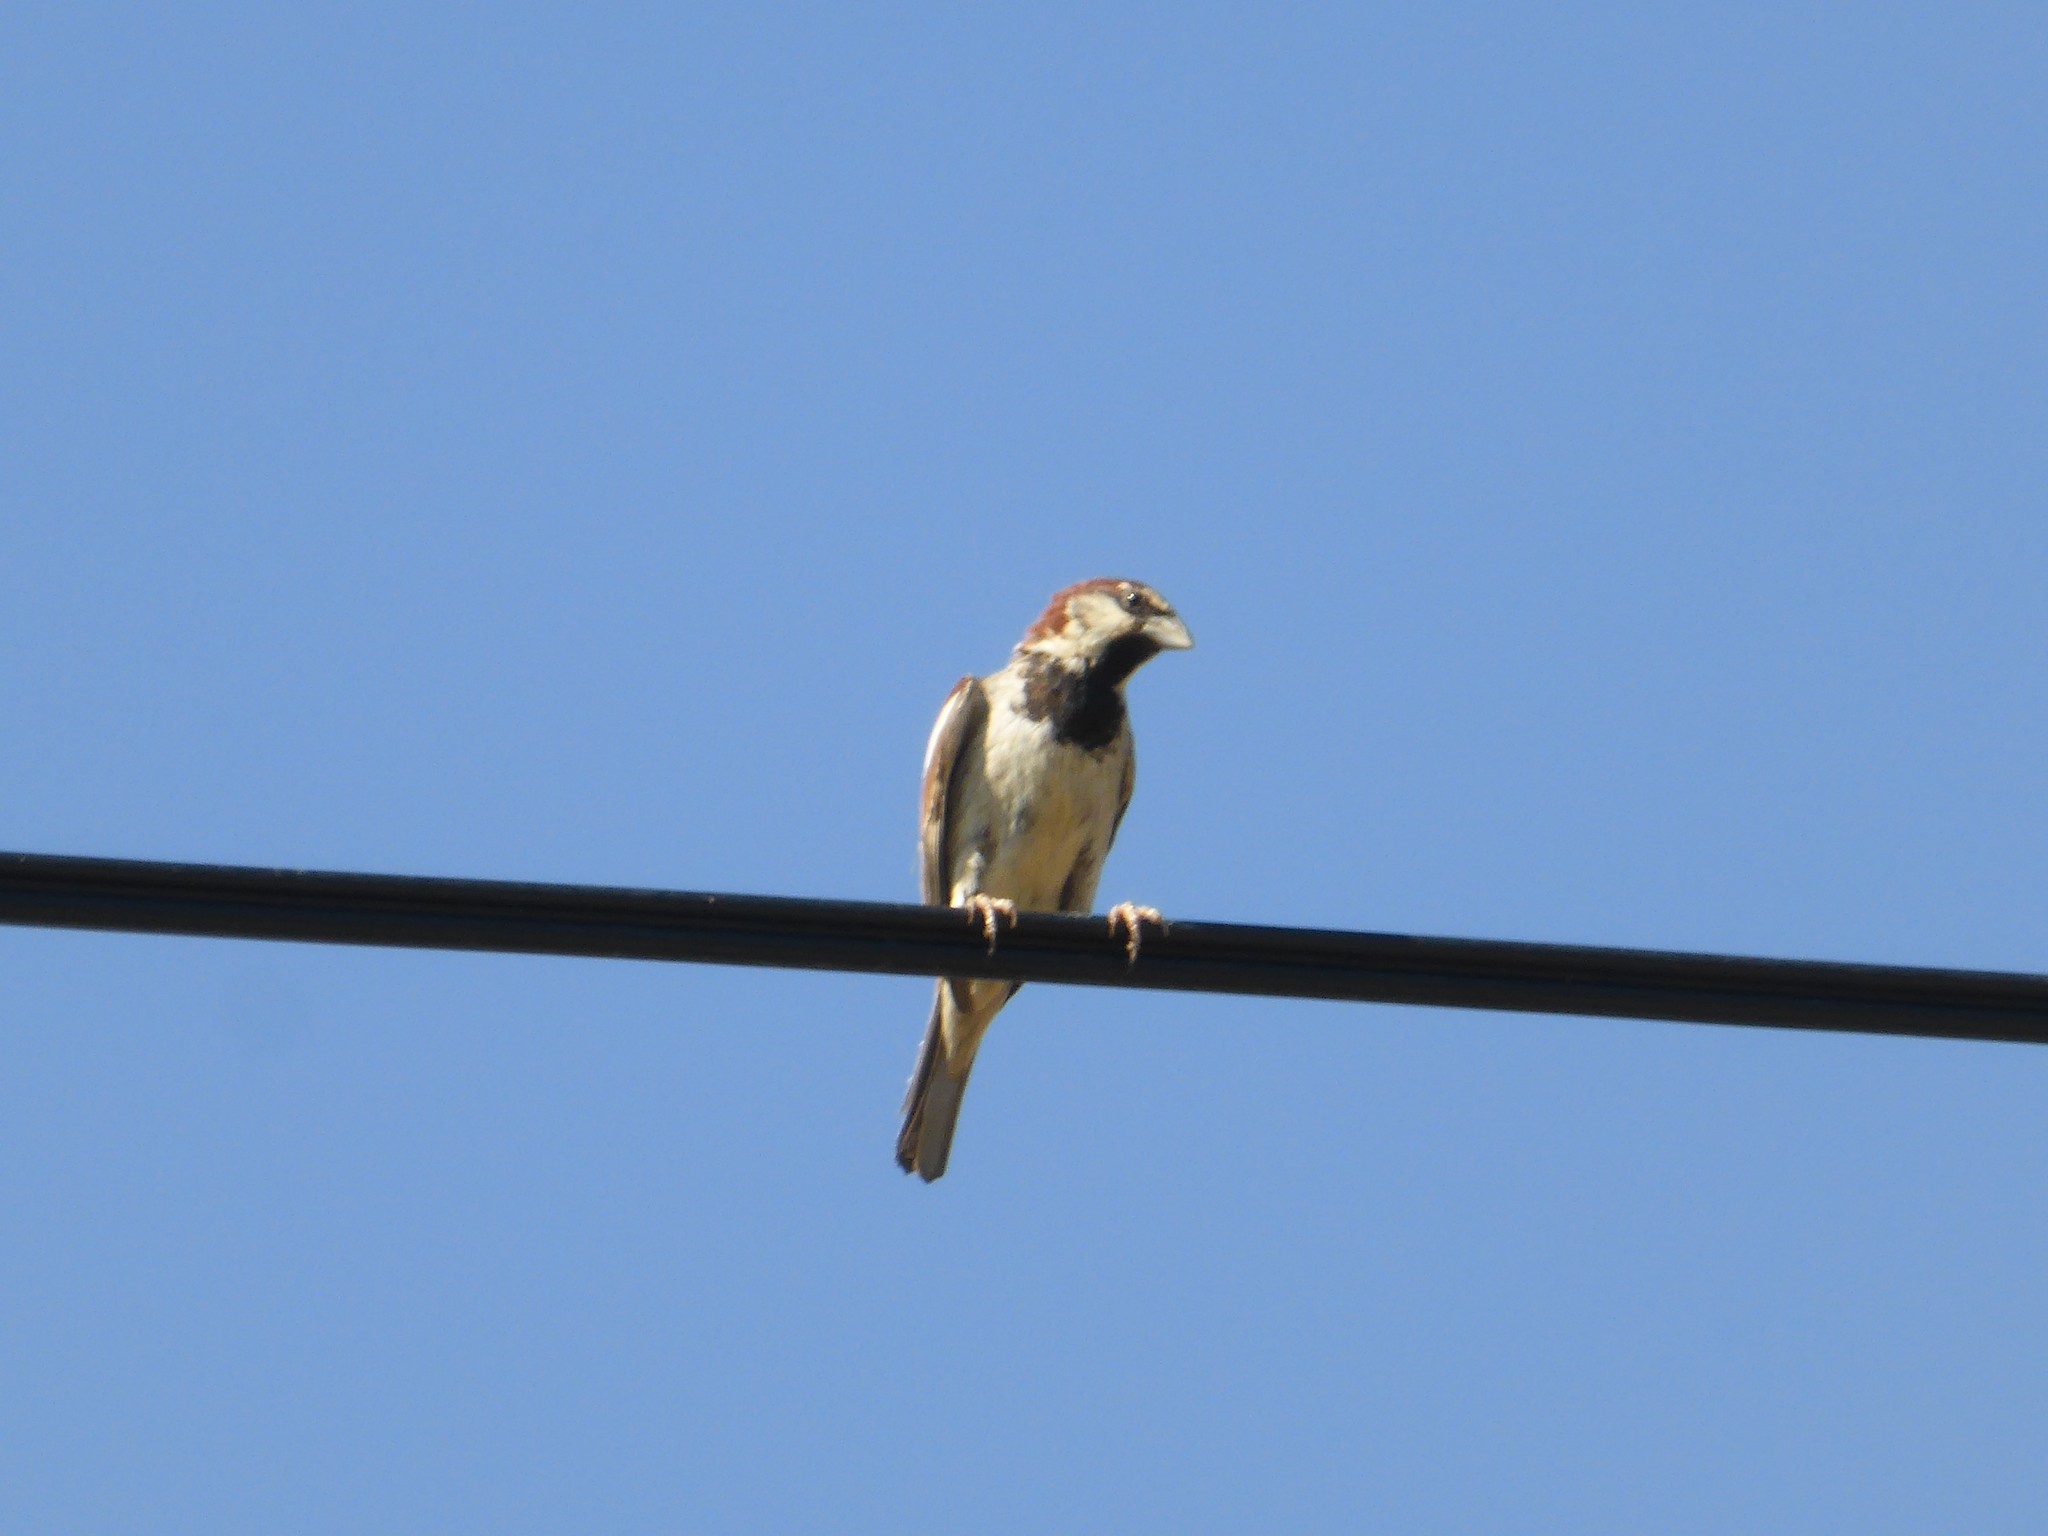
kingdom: Animalia
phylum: Chordata
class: Aves
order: Passeriformes
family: Passeridae
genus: Passer
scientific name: Passer italiae
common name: Italian sparrow
